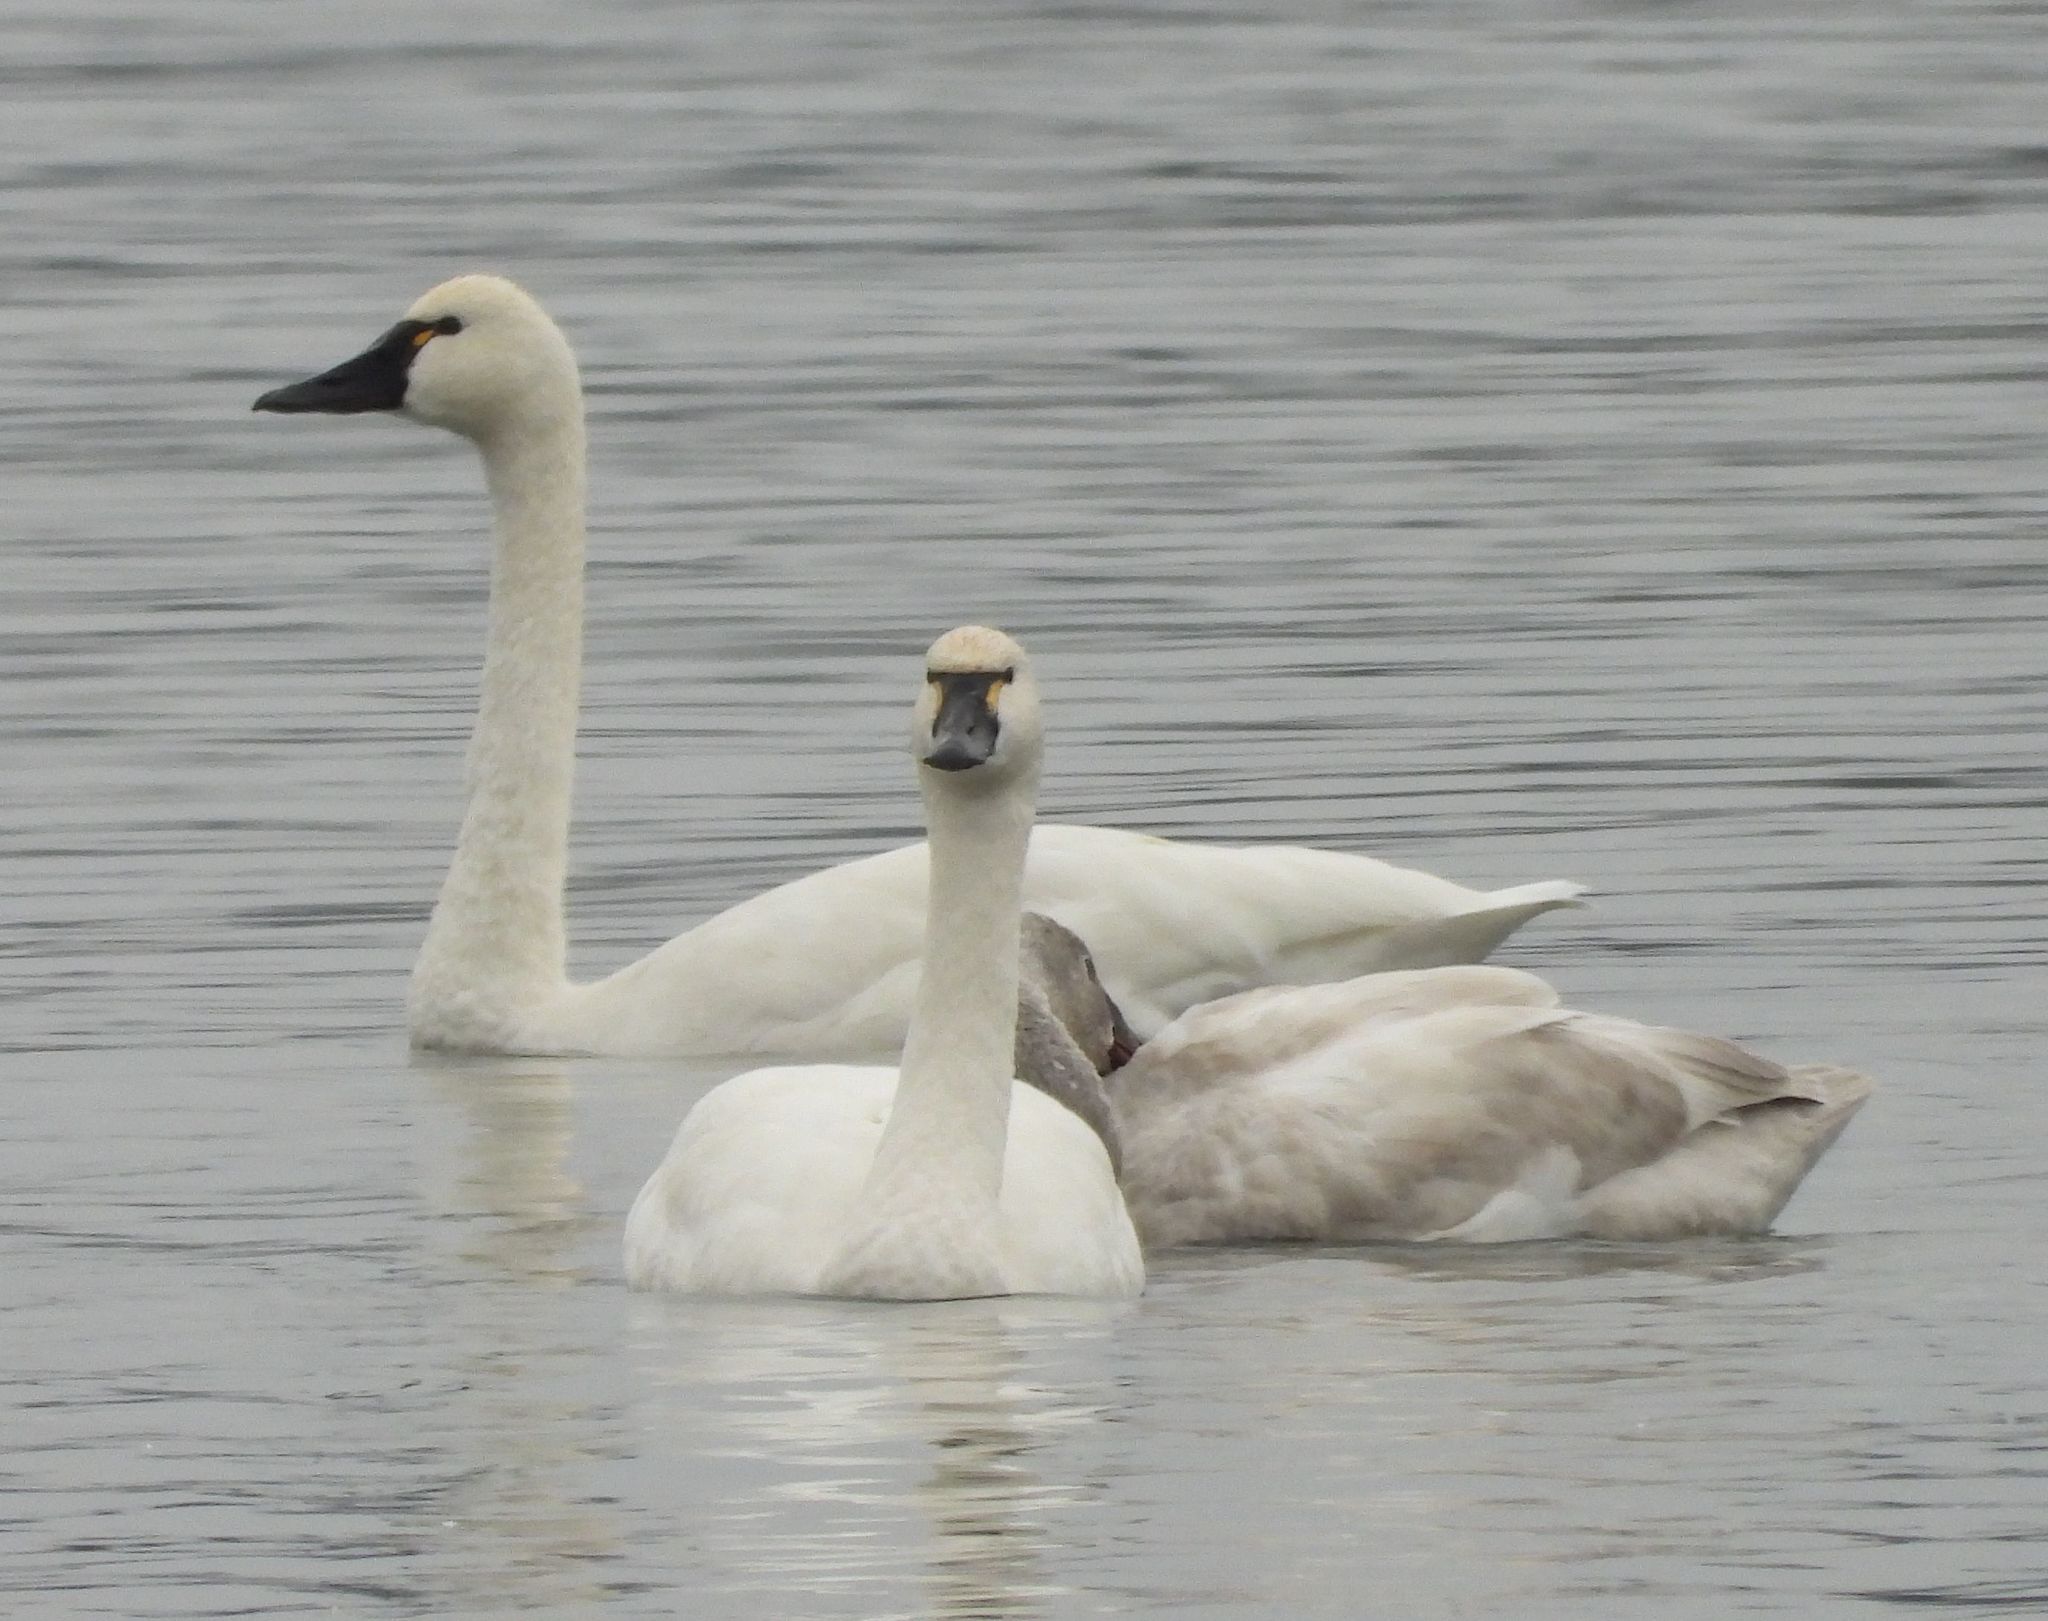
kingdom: Animalia
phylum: Chordata
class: Aves
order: Anseriformes
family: Anatidae
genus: Cygnus
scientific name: Cygnus columbianus
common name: Tundra swan
